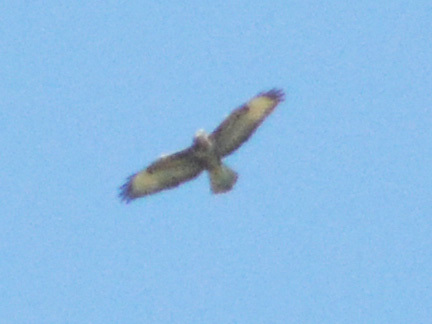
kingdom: Animalia
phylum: Chordata
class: Aves
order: Accipitriformes
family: Accipitridae
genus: Buteo
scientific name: Buteo buteo
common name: Common buzzard
